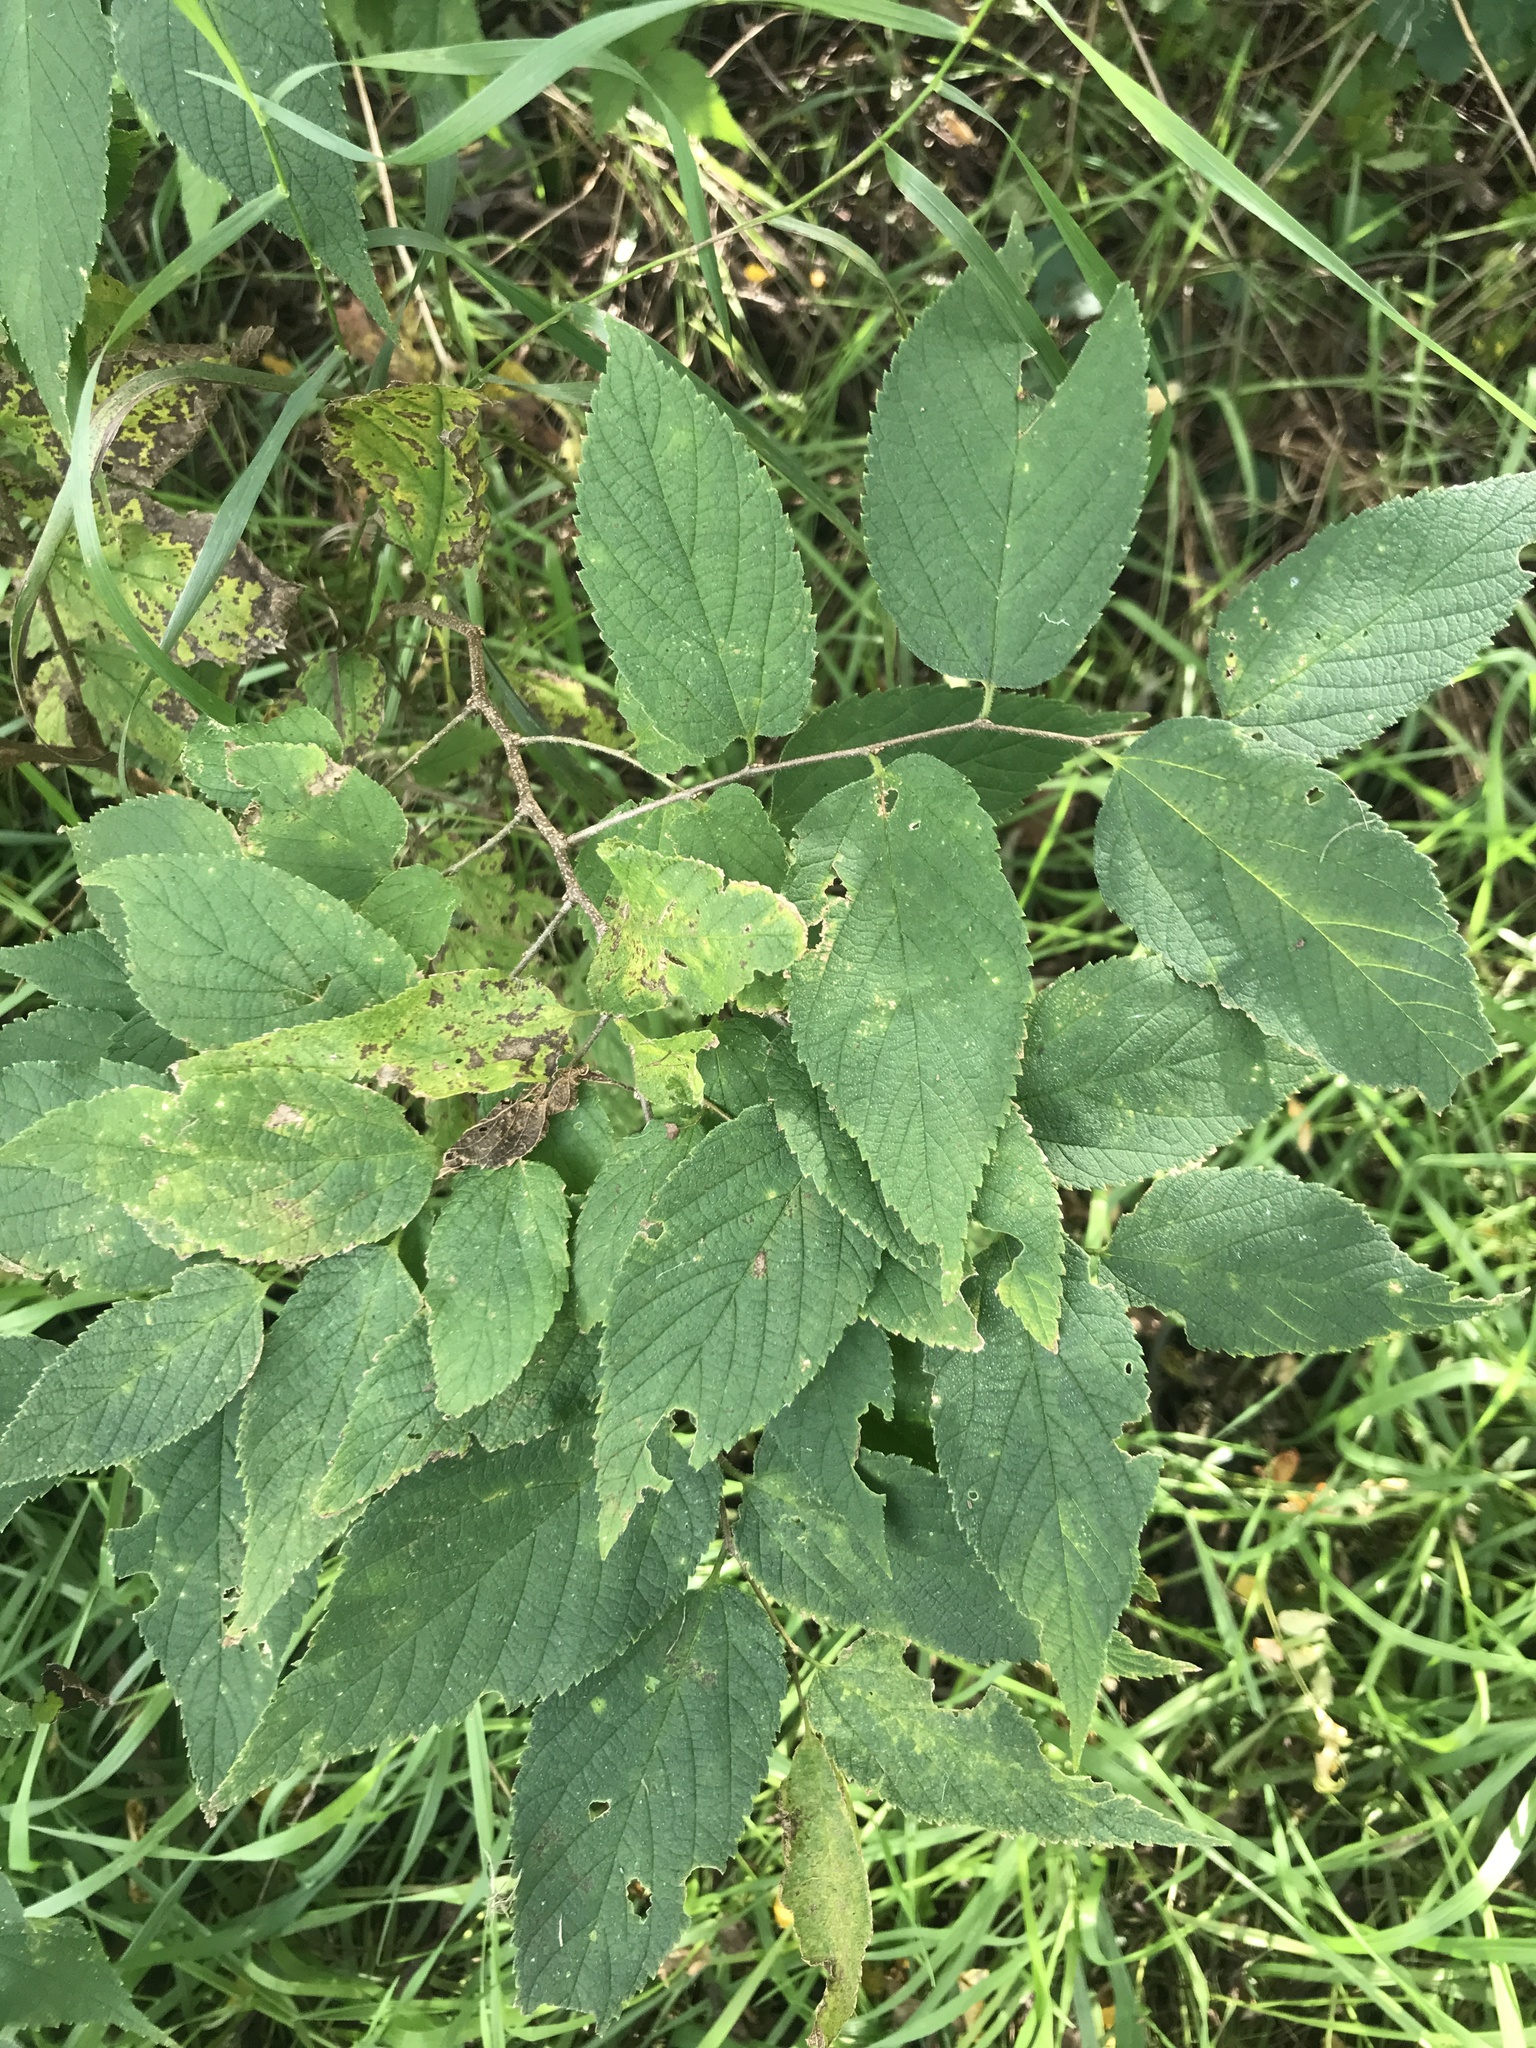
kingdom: Plantae
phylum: Tracheophyta
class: Magnoliopsida
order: Rosales
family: Cannabaceae
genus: Celtis
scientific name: Celtis occidentalis
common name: Common hackberry
